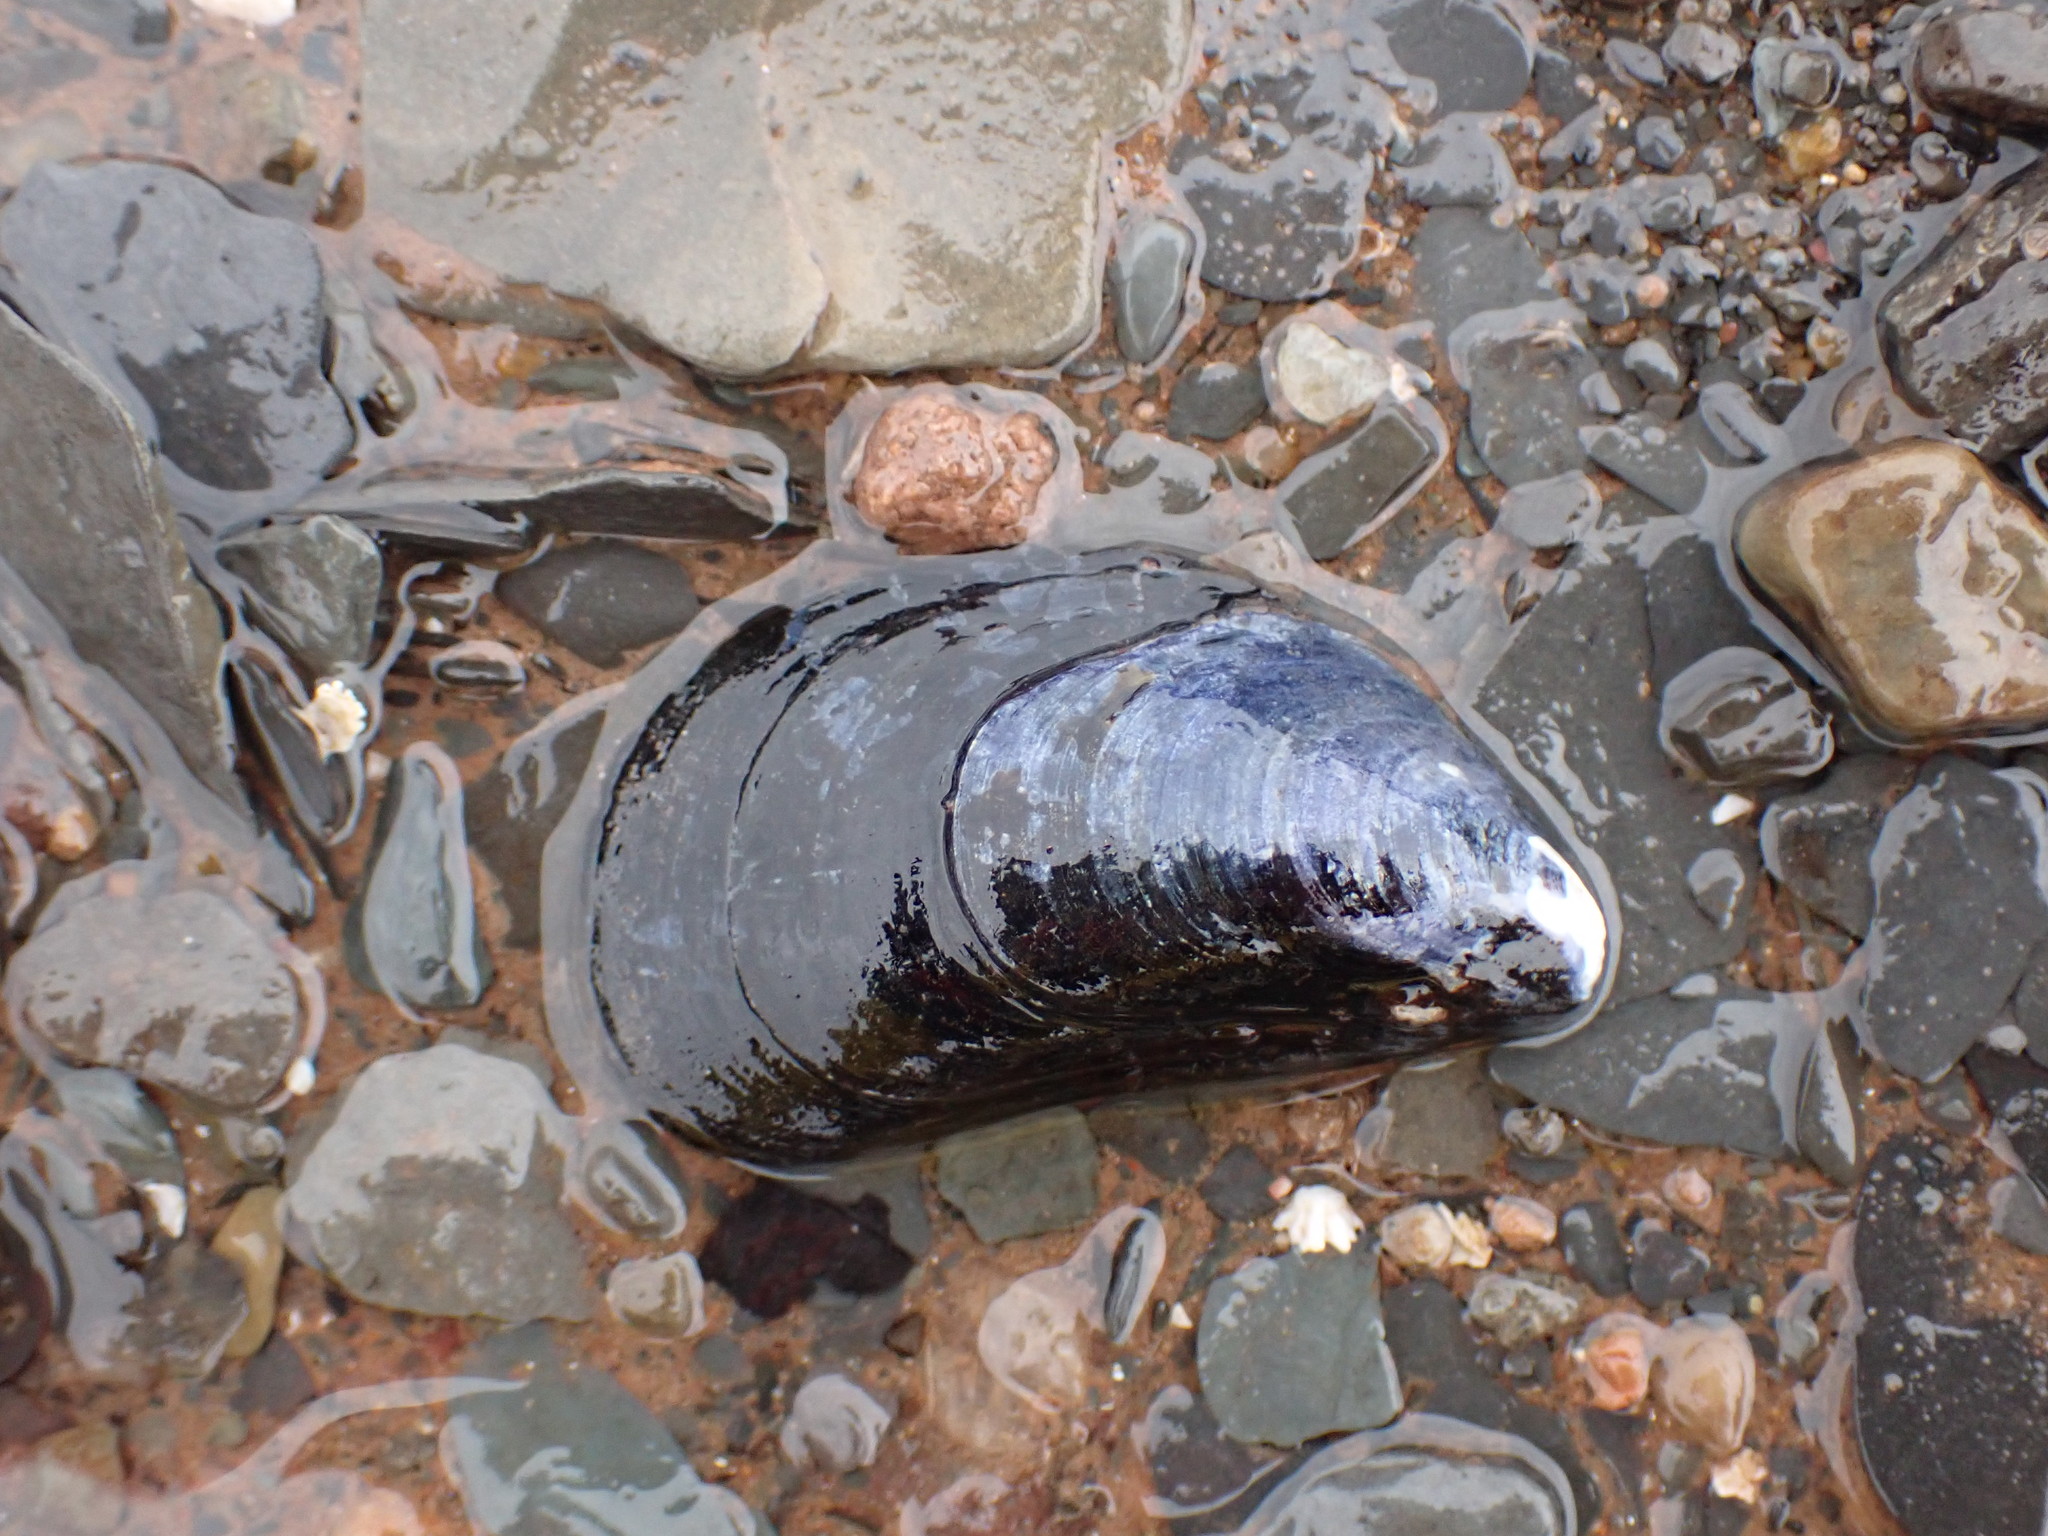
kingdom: Animalia
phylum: Mollusca
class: Bivalvia
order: Mytilida
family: Mytilidae
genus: Mytilus
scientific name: Mytilus edulis
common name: Blue mussel
